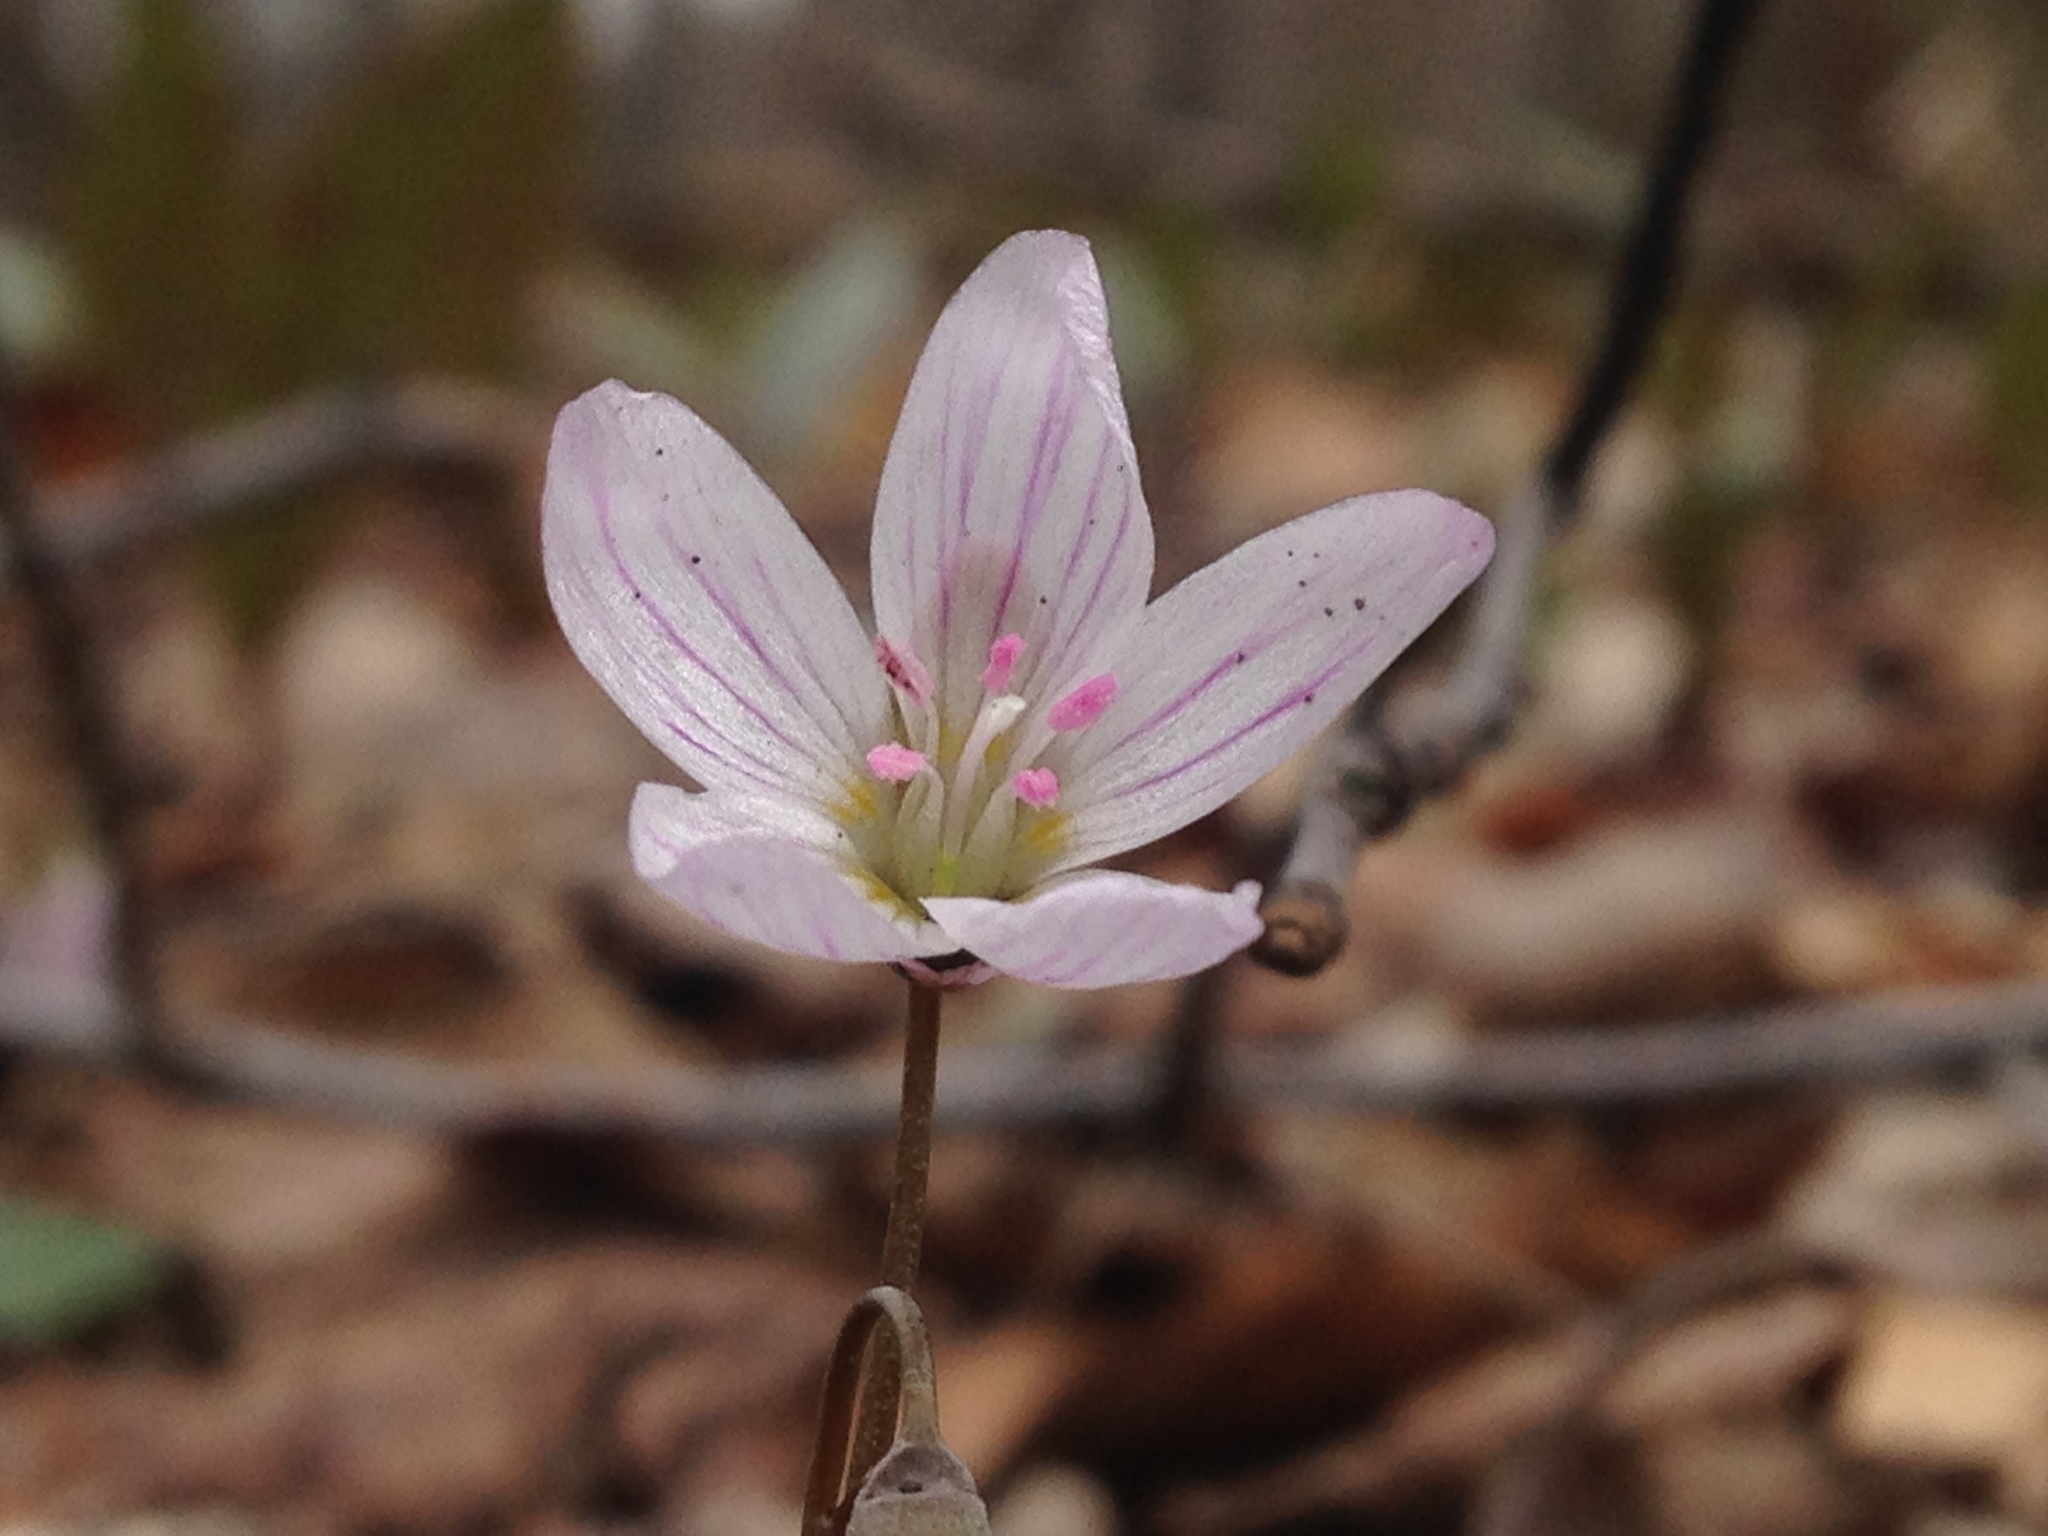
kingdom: Plantae
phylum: Tracheophyta
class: Magnoliopsida
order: Caryophyllales
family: Montiaceae
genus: Claytonia
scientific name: Claytonia caroliniana
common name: Carolina spring beauty
